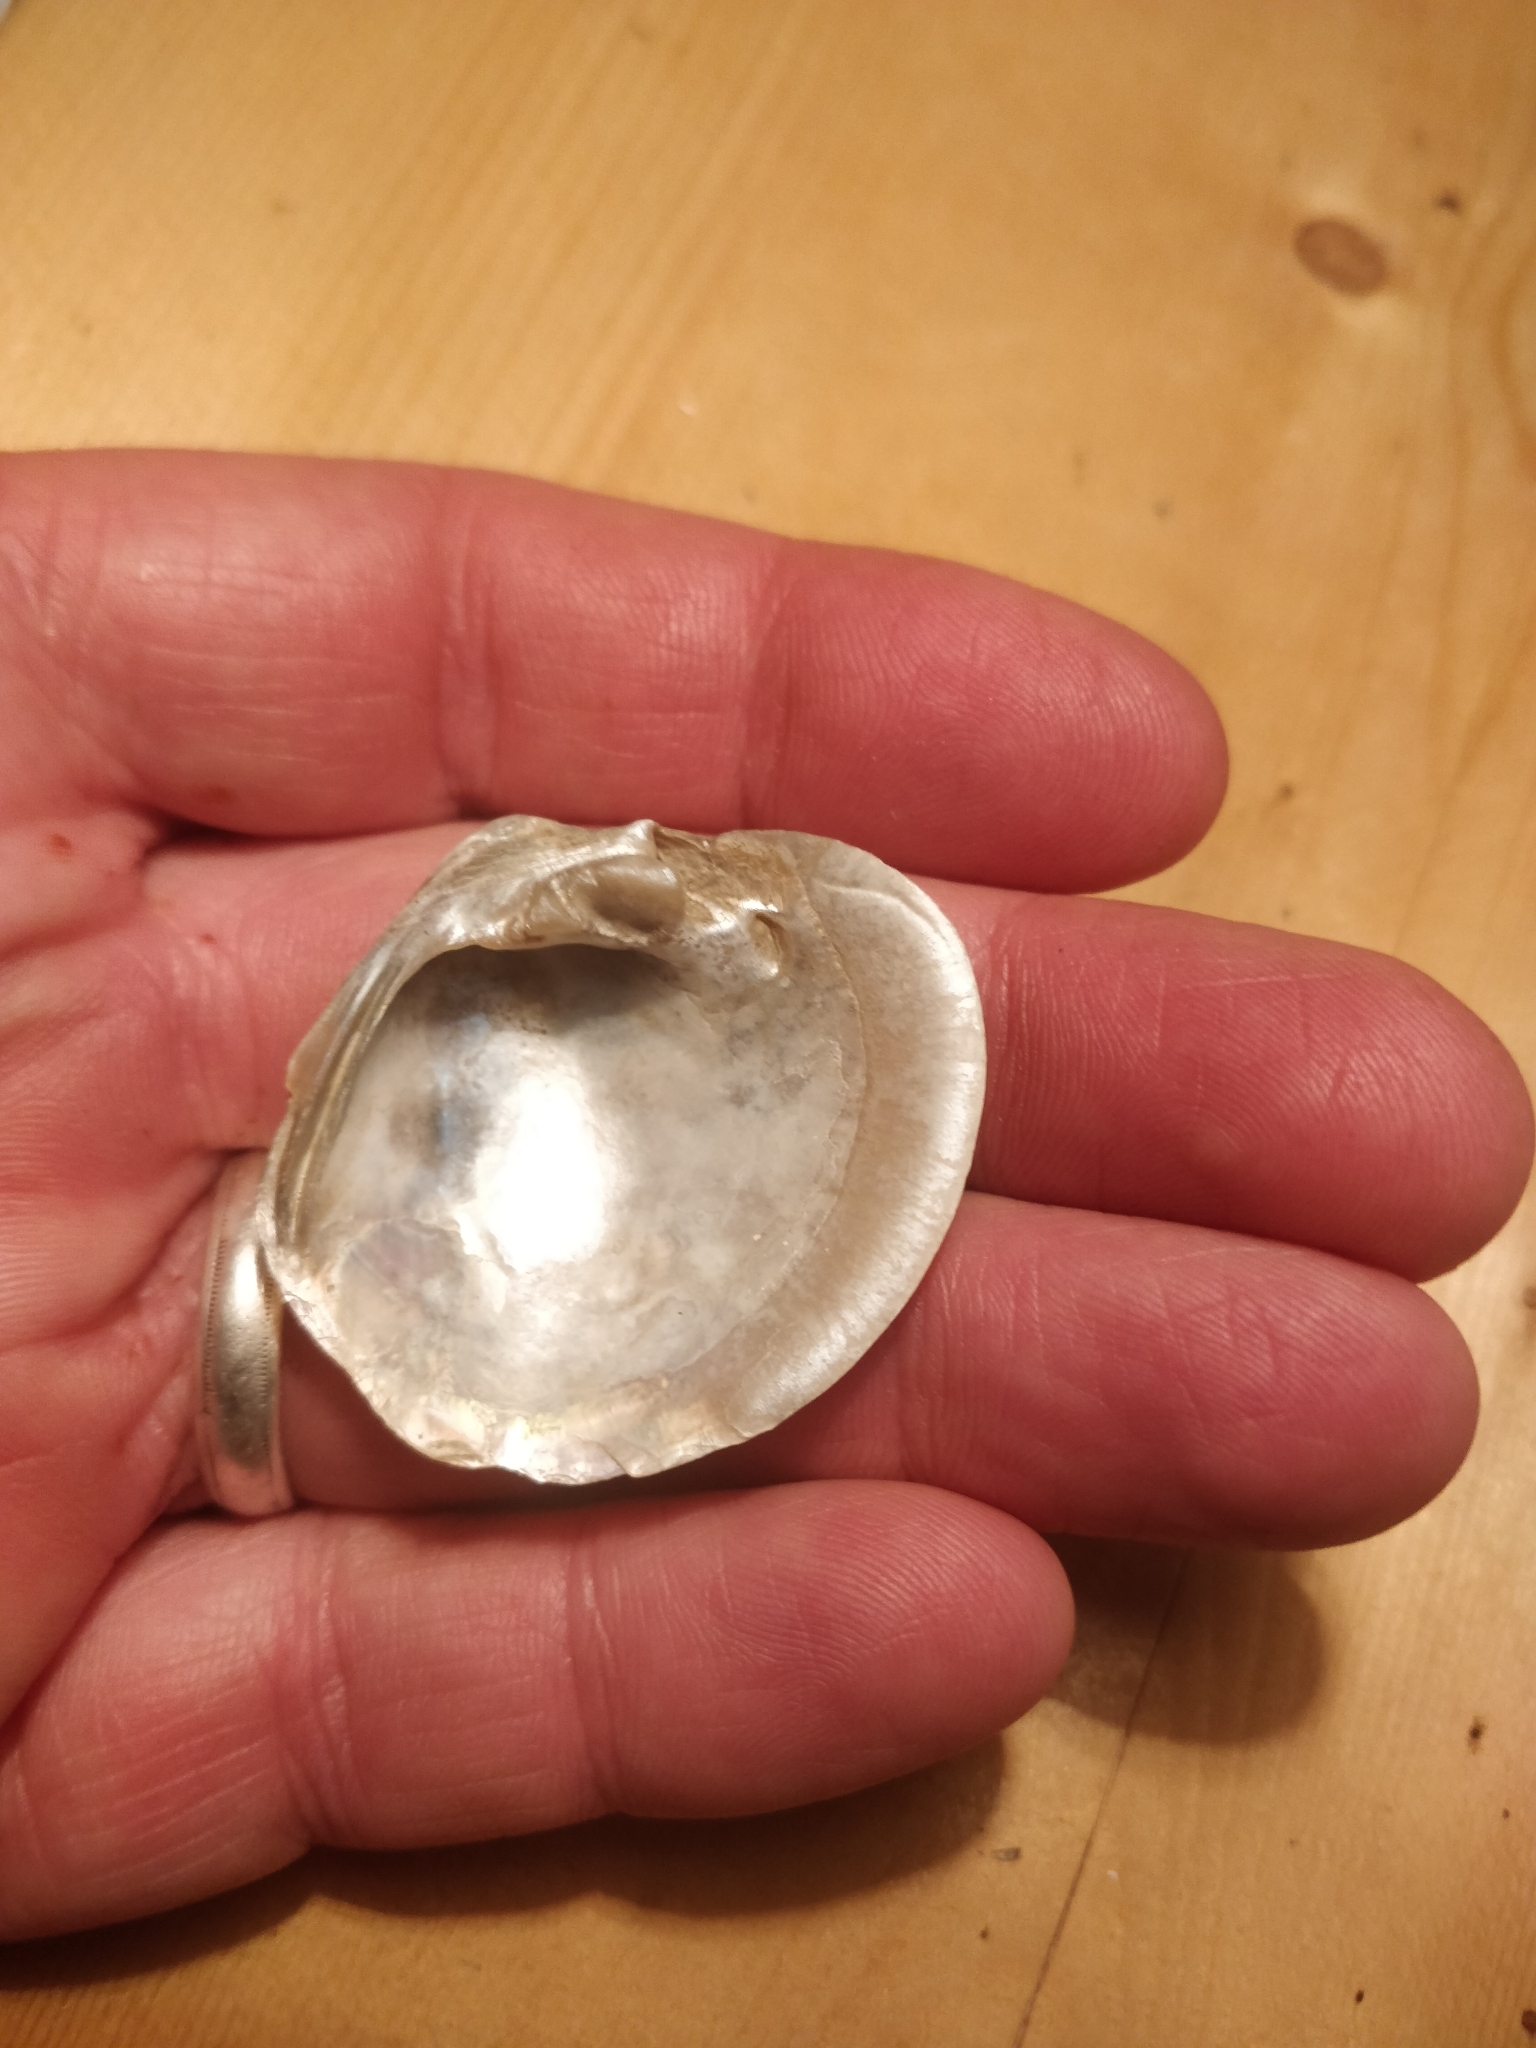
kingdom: Animalia
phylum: Mollusca
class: Bivalvia
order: Unionida
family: Unionidae
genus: Cyclonaias
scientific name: Cyclonaias pustulosa
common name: Pimpleback
